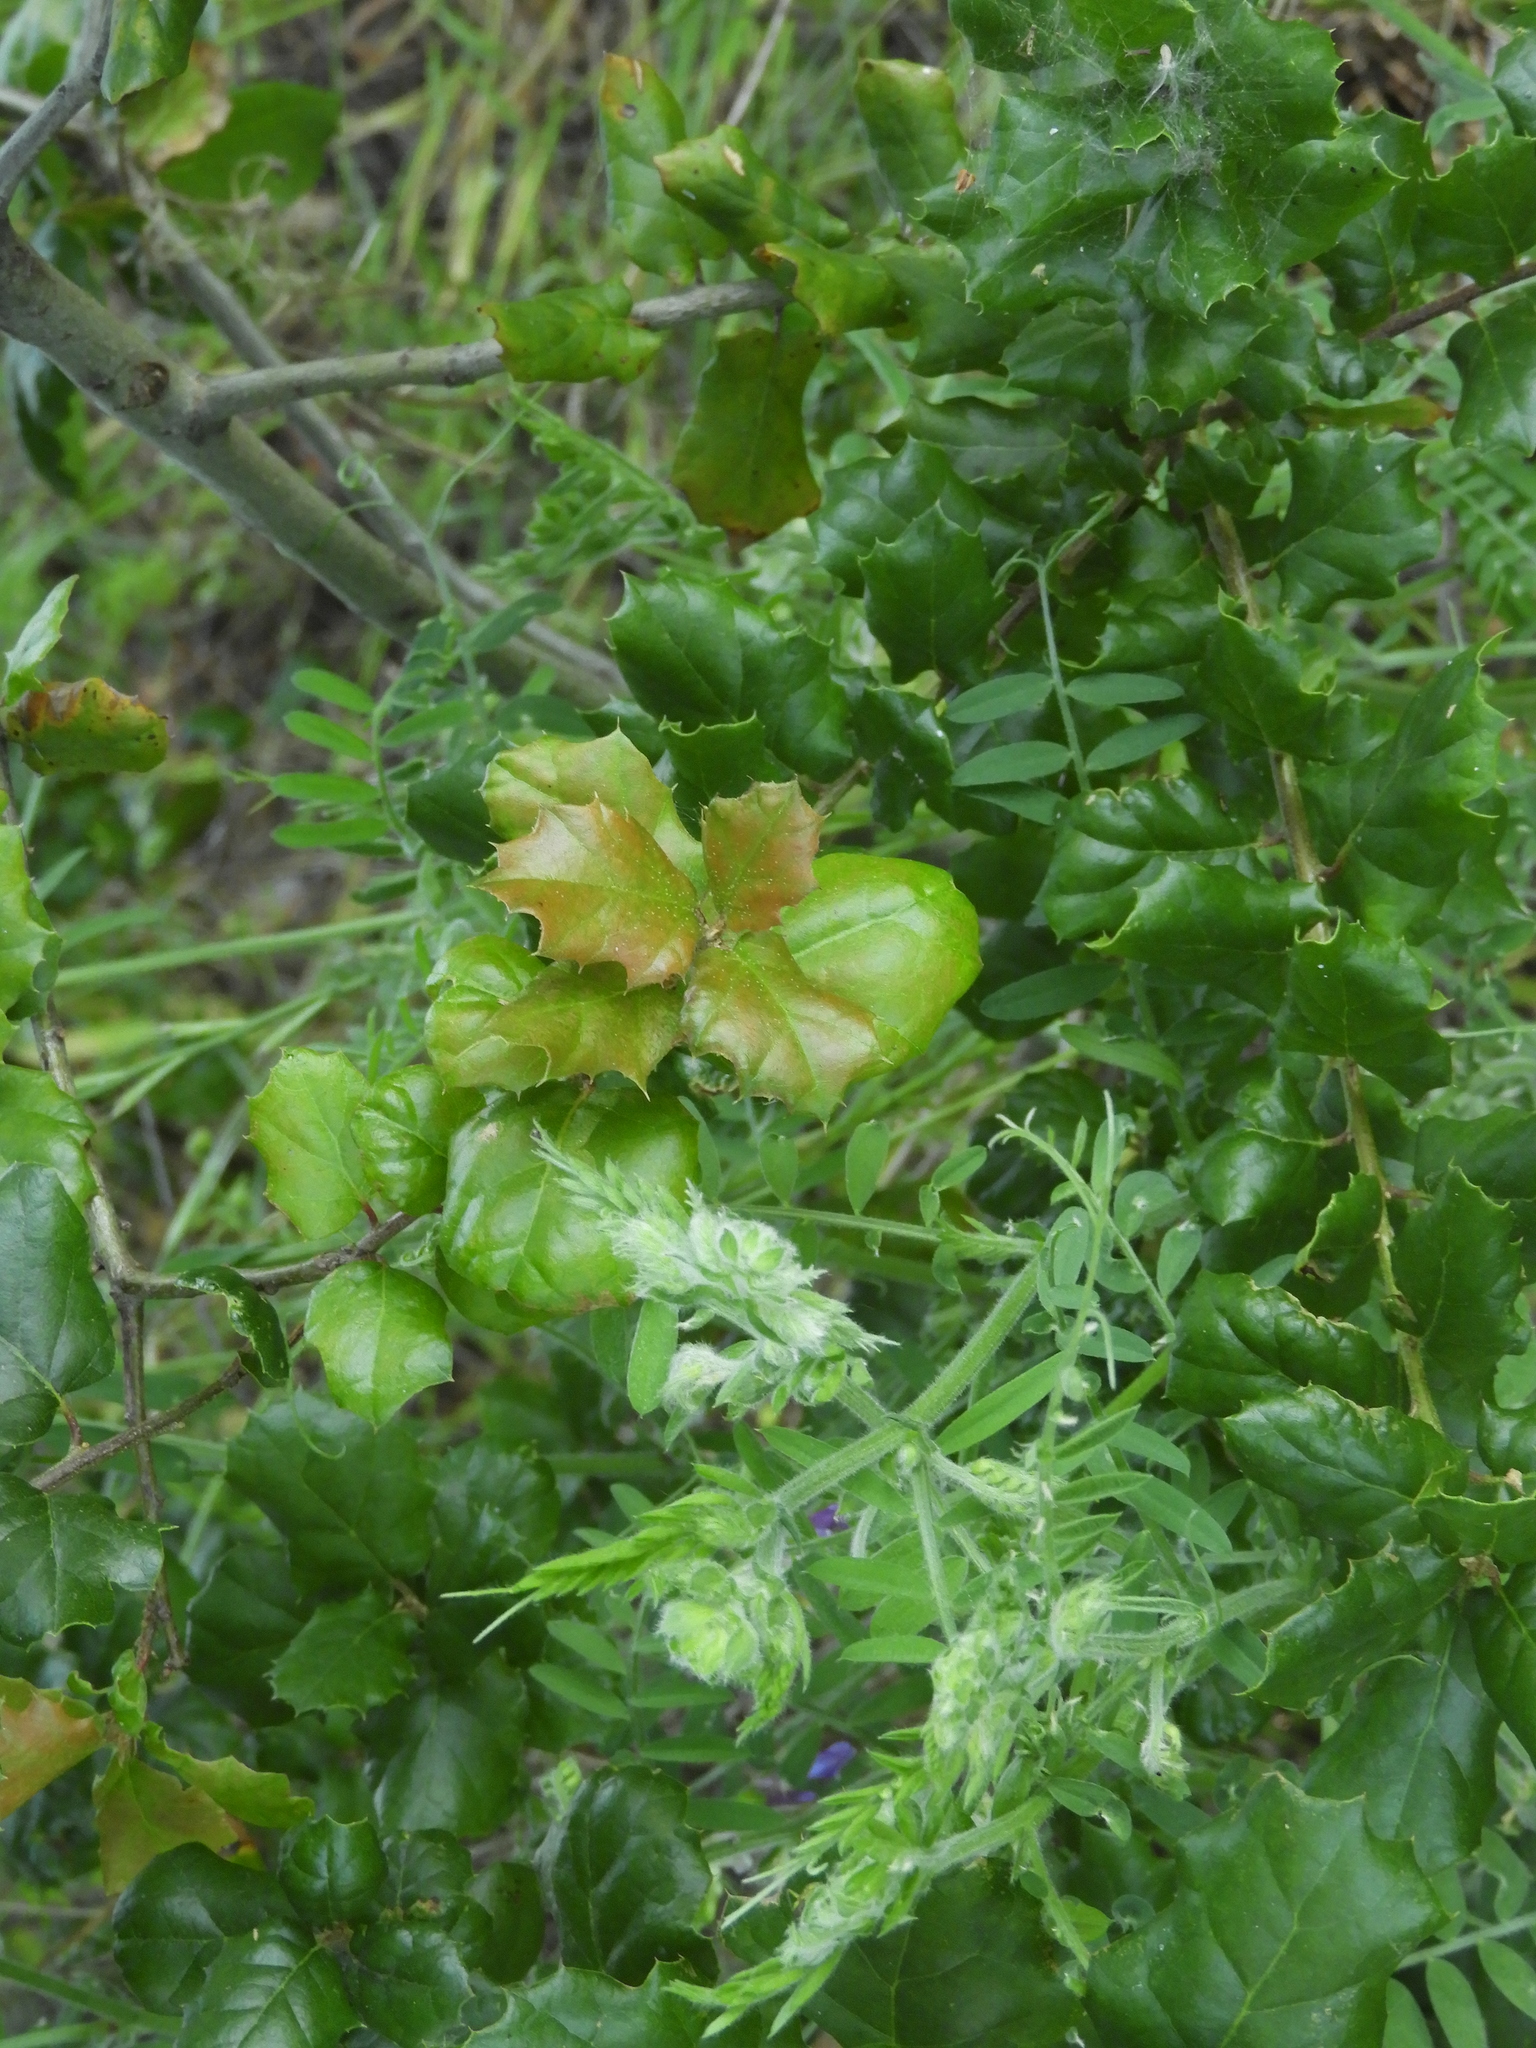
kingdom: Plantae
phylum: Tracheophyta
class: Magnoliopsida
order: Fagales
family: Fagaceae
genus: Quercus
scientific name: Quercus agrifolia
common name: California live oak
